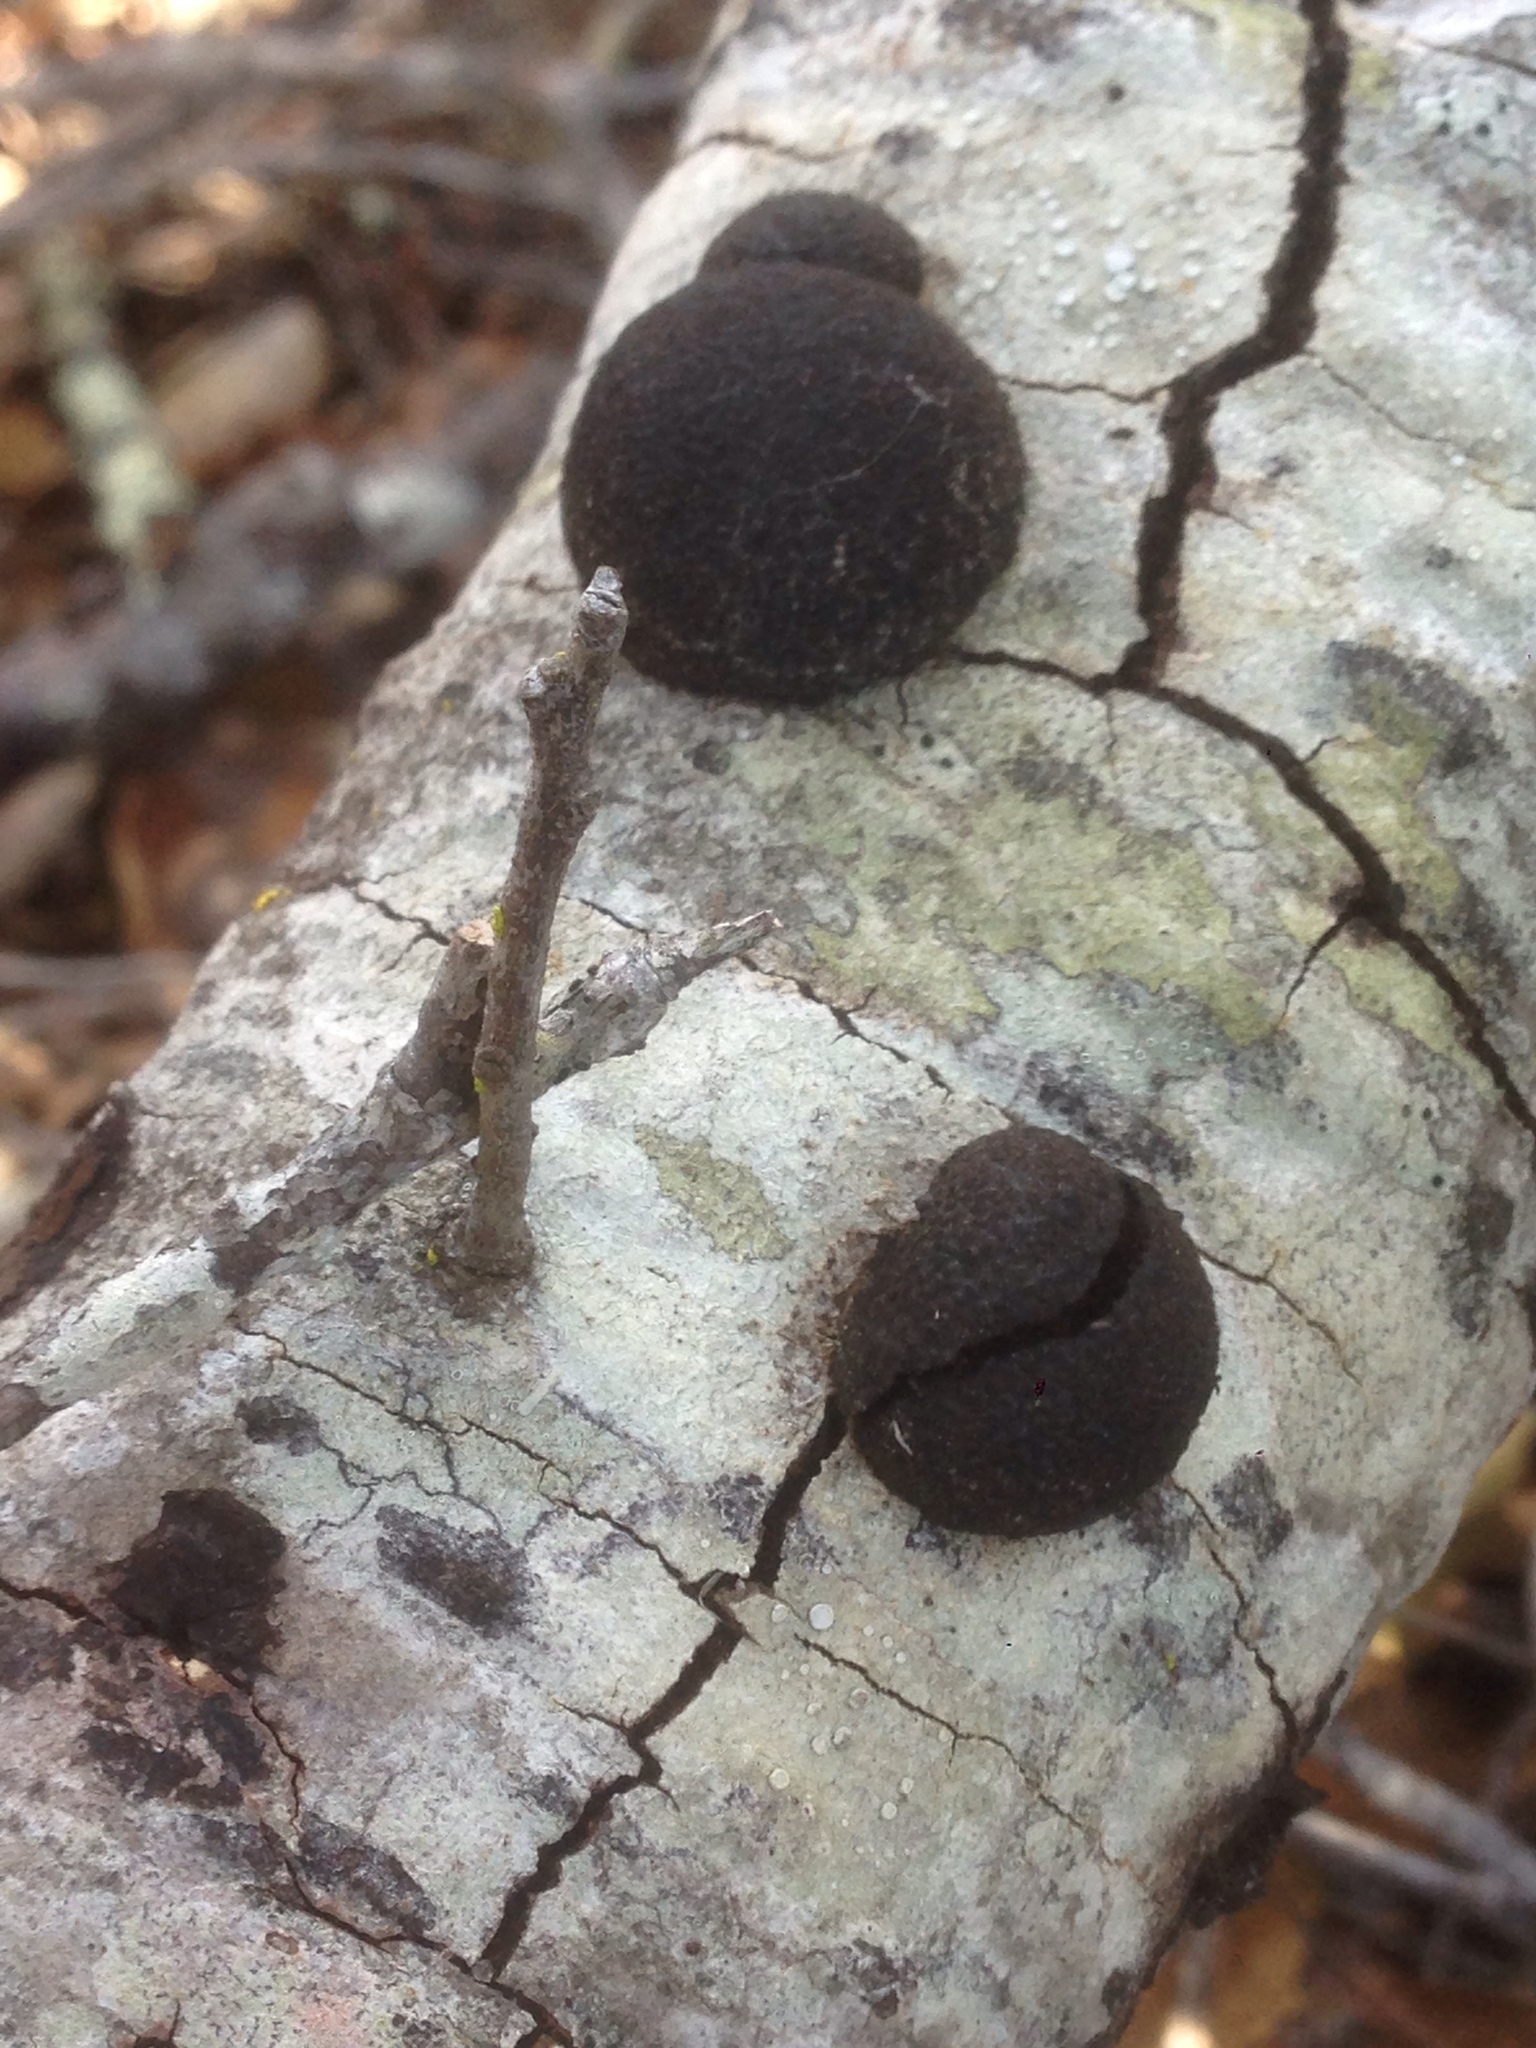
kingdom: Fungi
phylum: Ascomycota
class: Sordariomycetes
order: Xylariales
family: Hypoxylaceae
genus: Annulohypoxylon
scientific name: Annulohypoxylon thouarsianum
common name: Cramp balls
